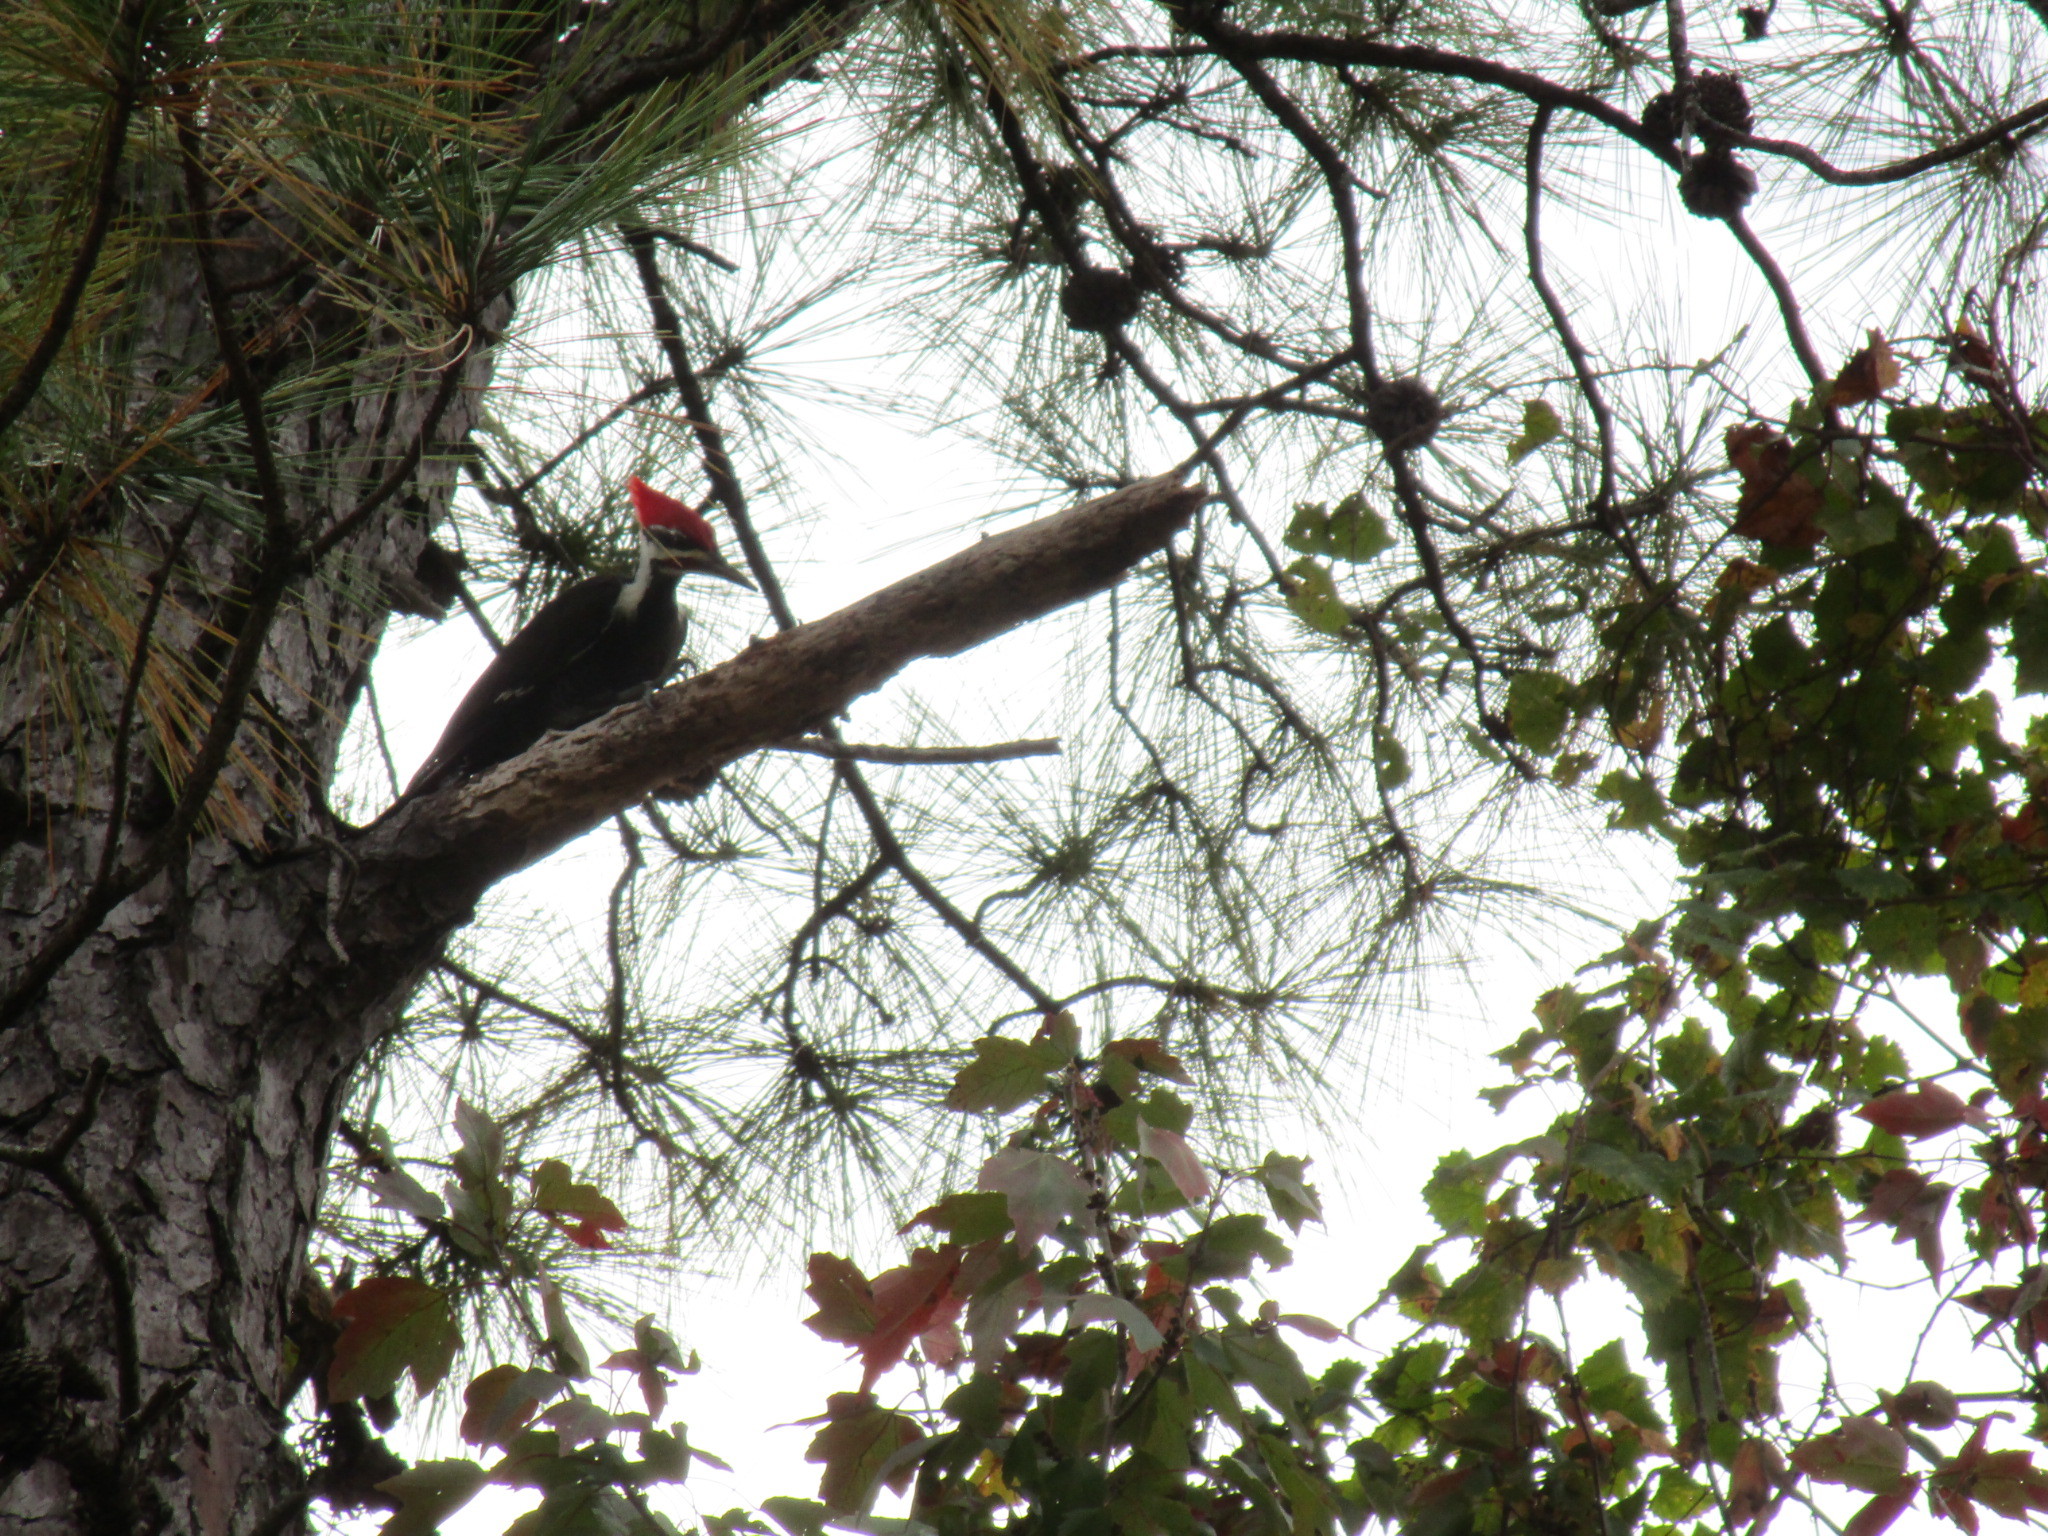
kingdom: Animalia
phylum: Chordata
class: Aves
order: Piciformes
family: Picidae
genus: Dryocopus
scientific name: Dryocopus pileatus
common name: Pileated woodpecker
